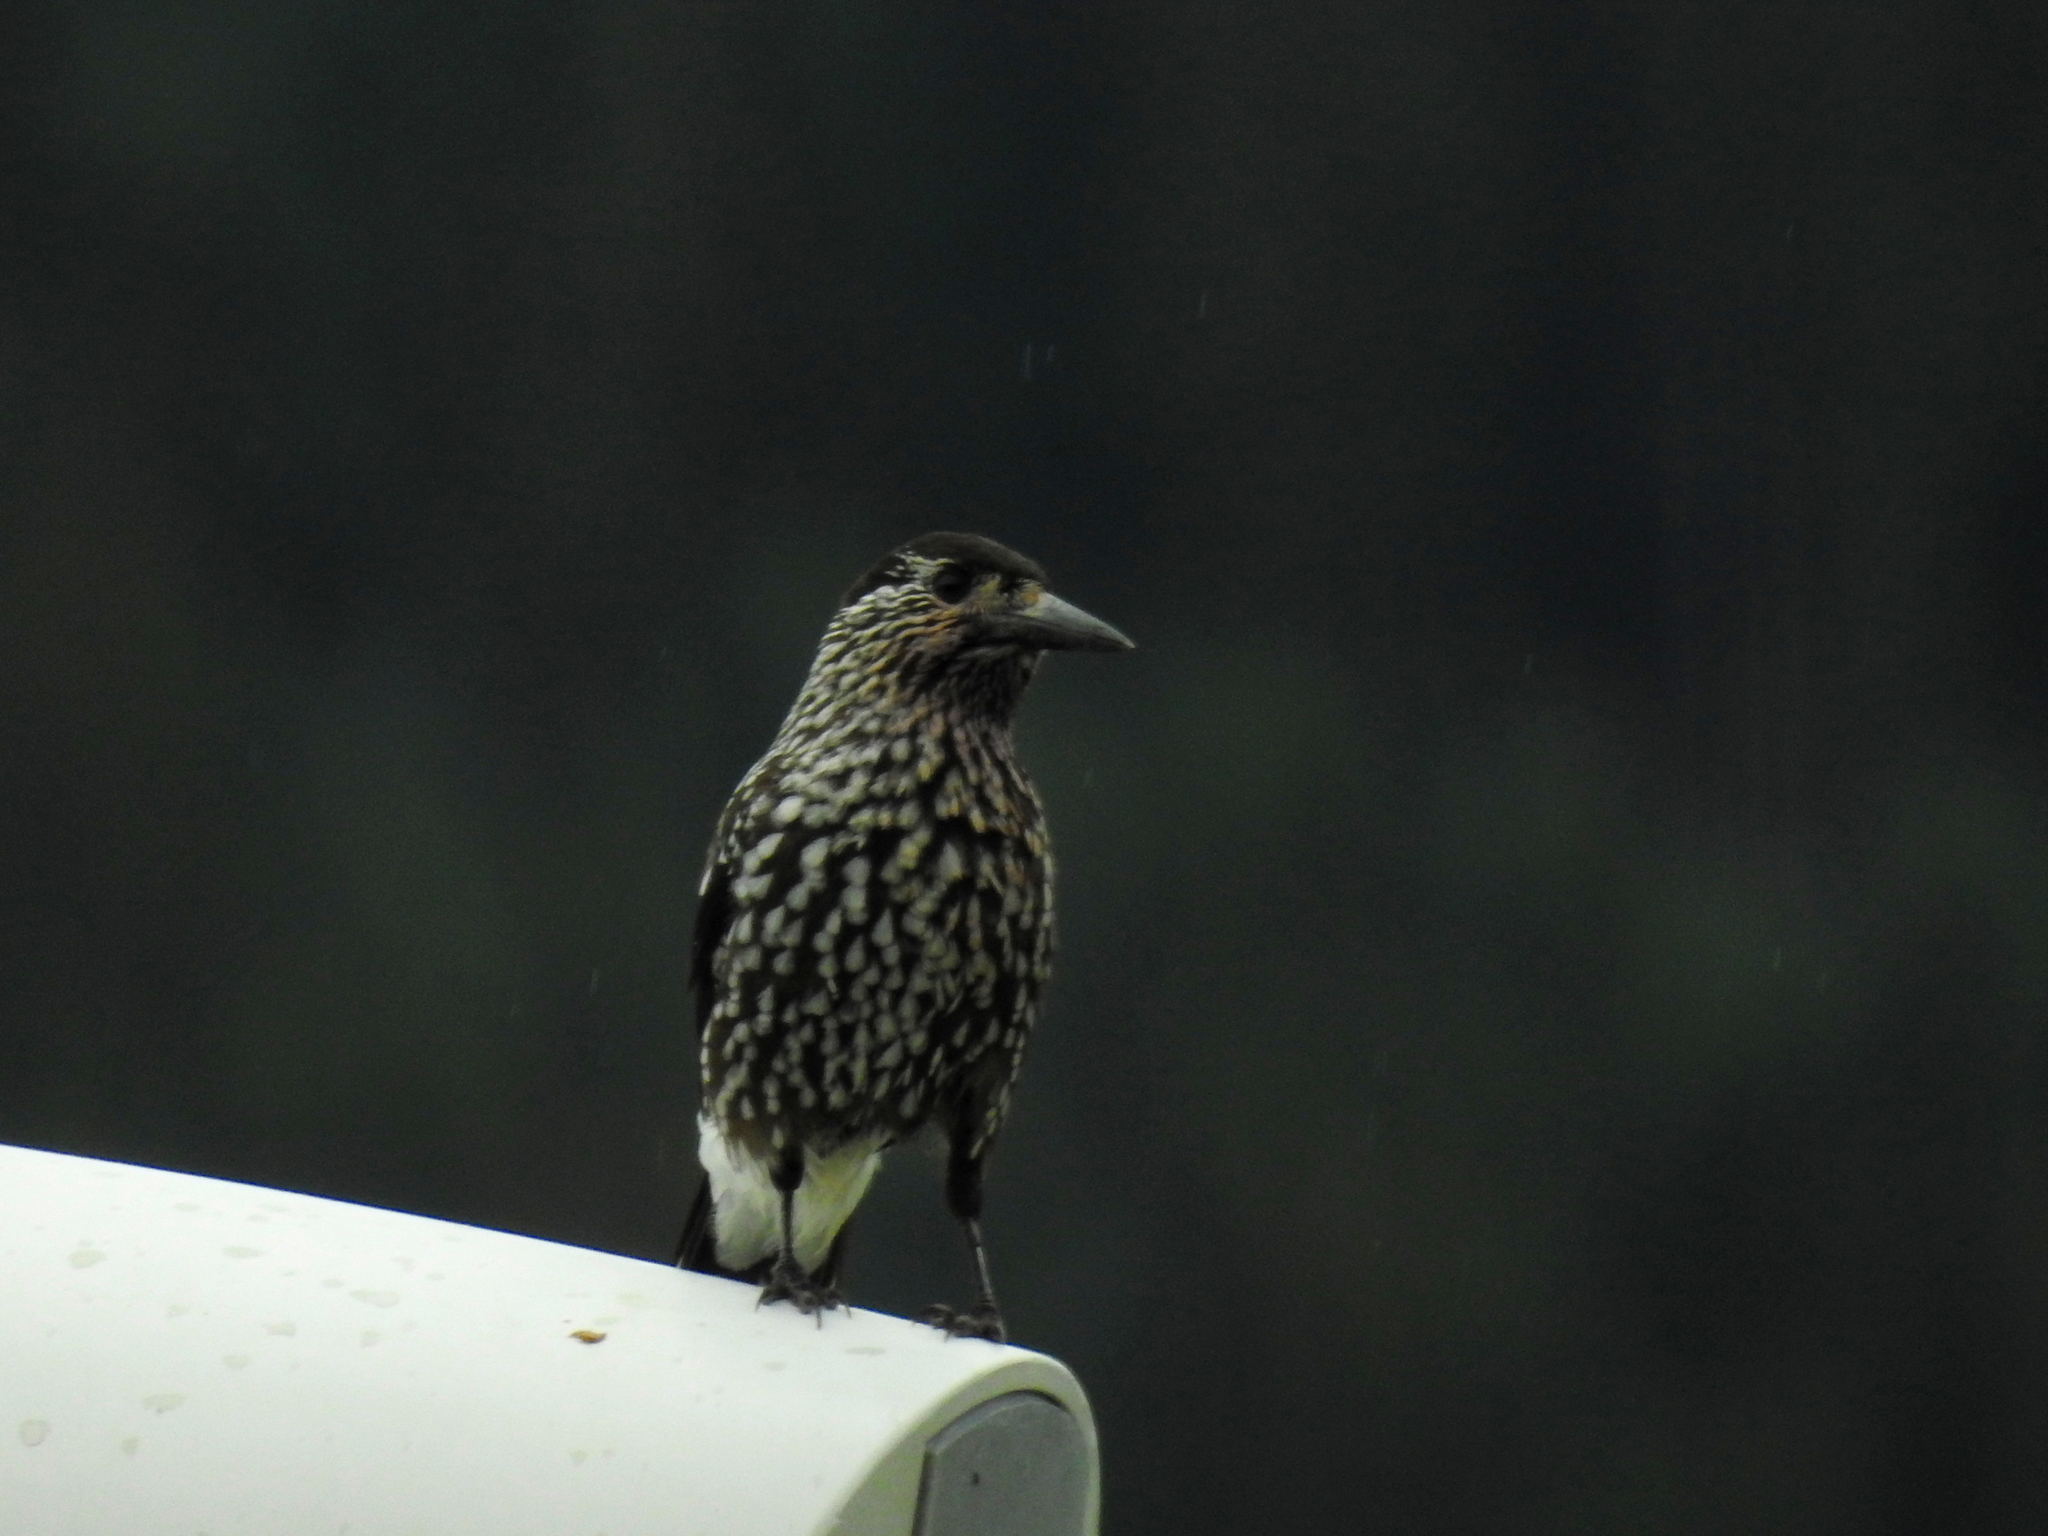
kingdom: Animalia
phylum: Chordata
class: Aves
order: Passeriformes
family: Corvidae
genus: Nucifraga
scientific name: Nucifraga caryocatactes
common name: Spotted nutcracker
